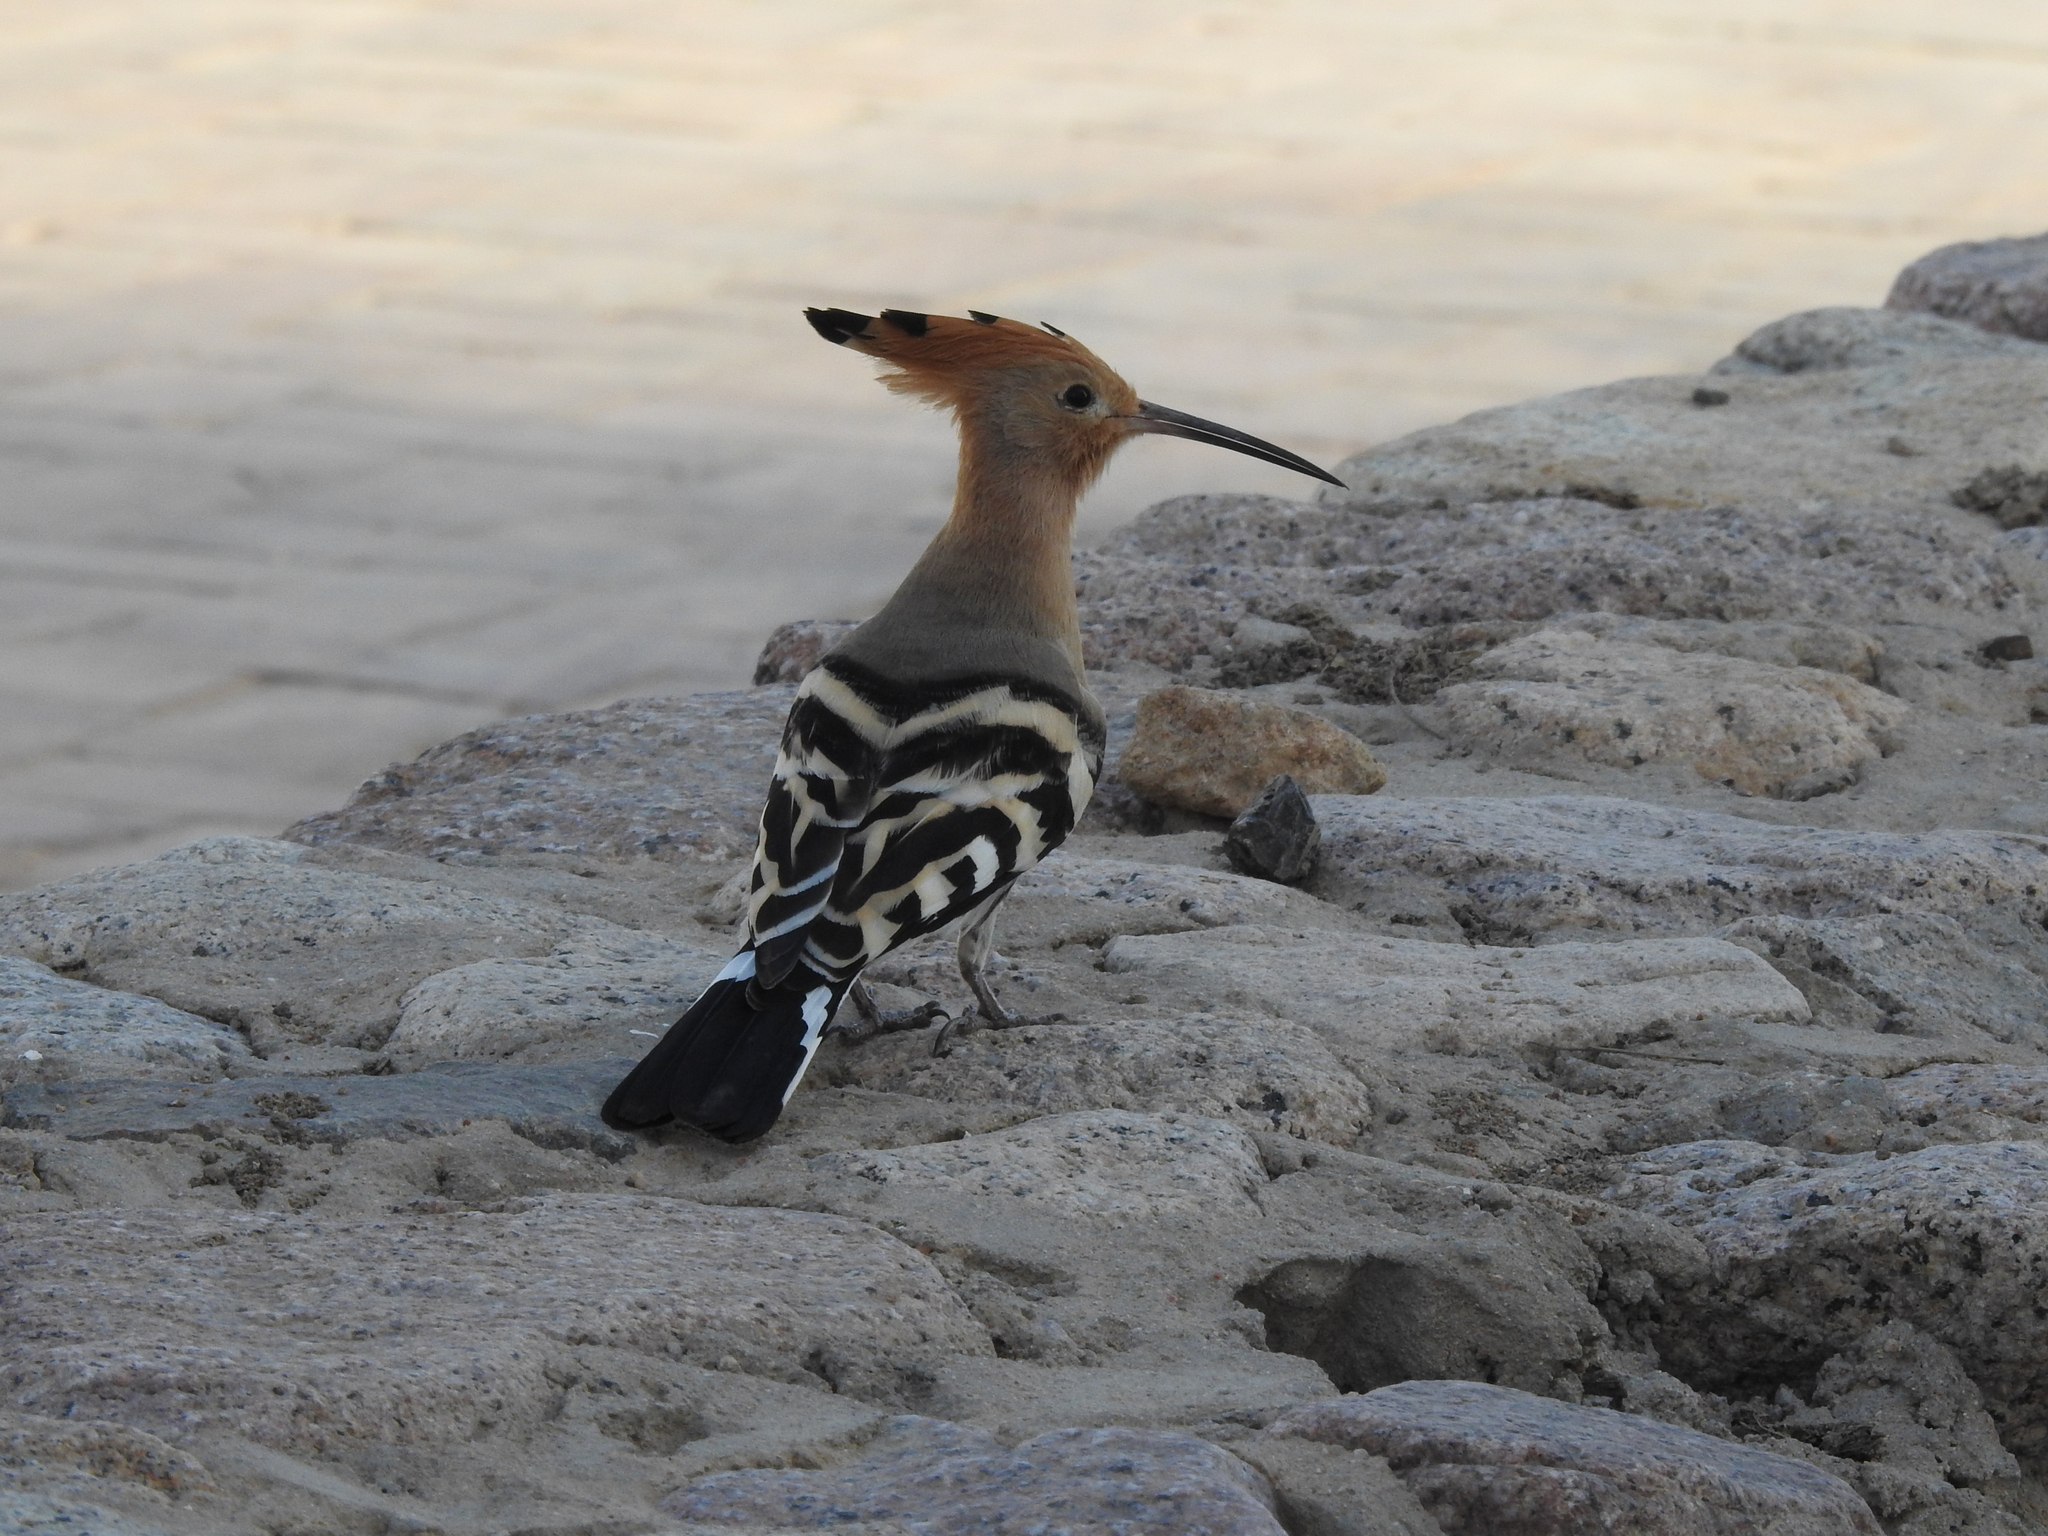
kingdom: Animalia
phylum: Chordata
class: Aves
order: Bucerotiformes
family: Upupidae
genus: Upupa
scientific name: Upupa epops
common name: Eurasian hoopoe
